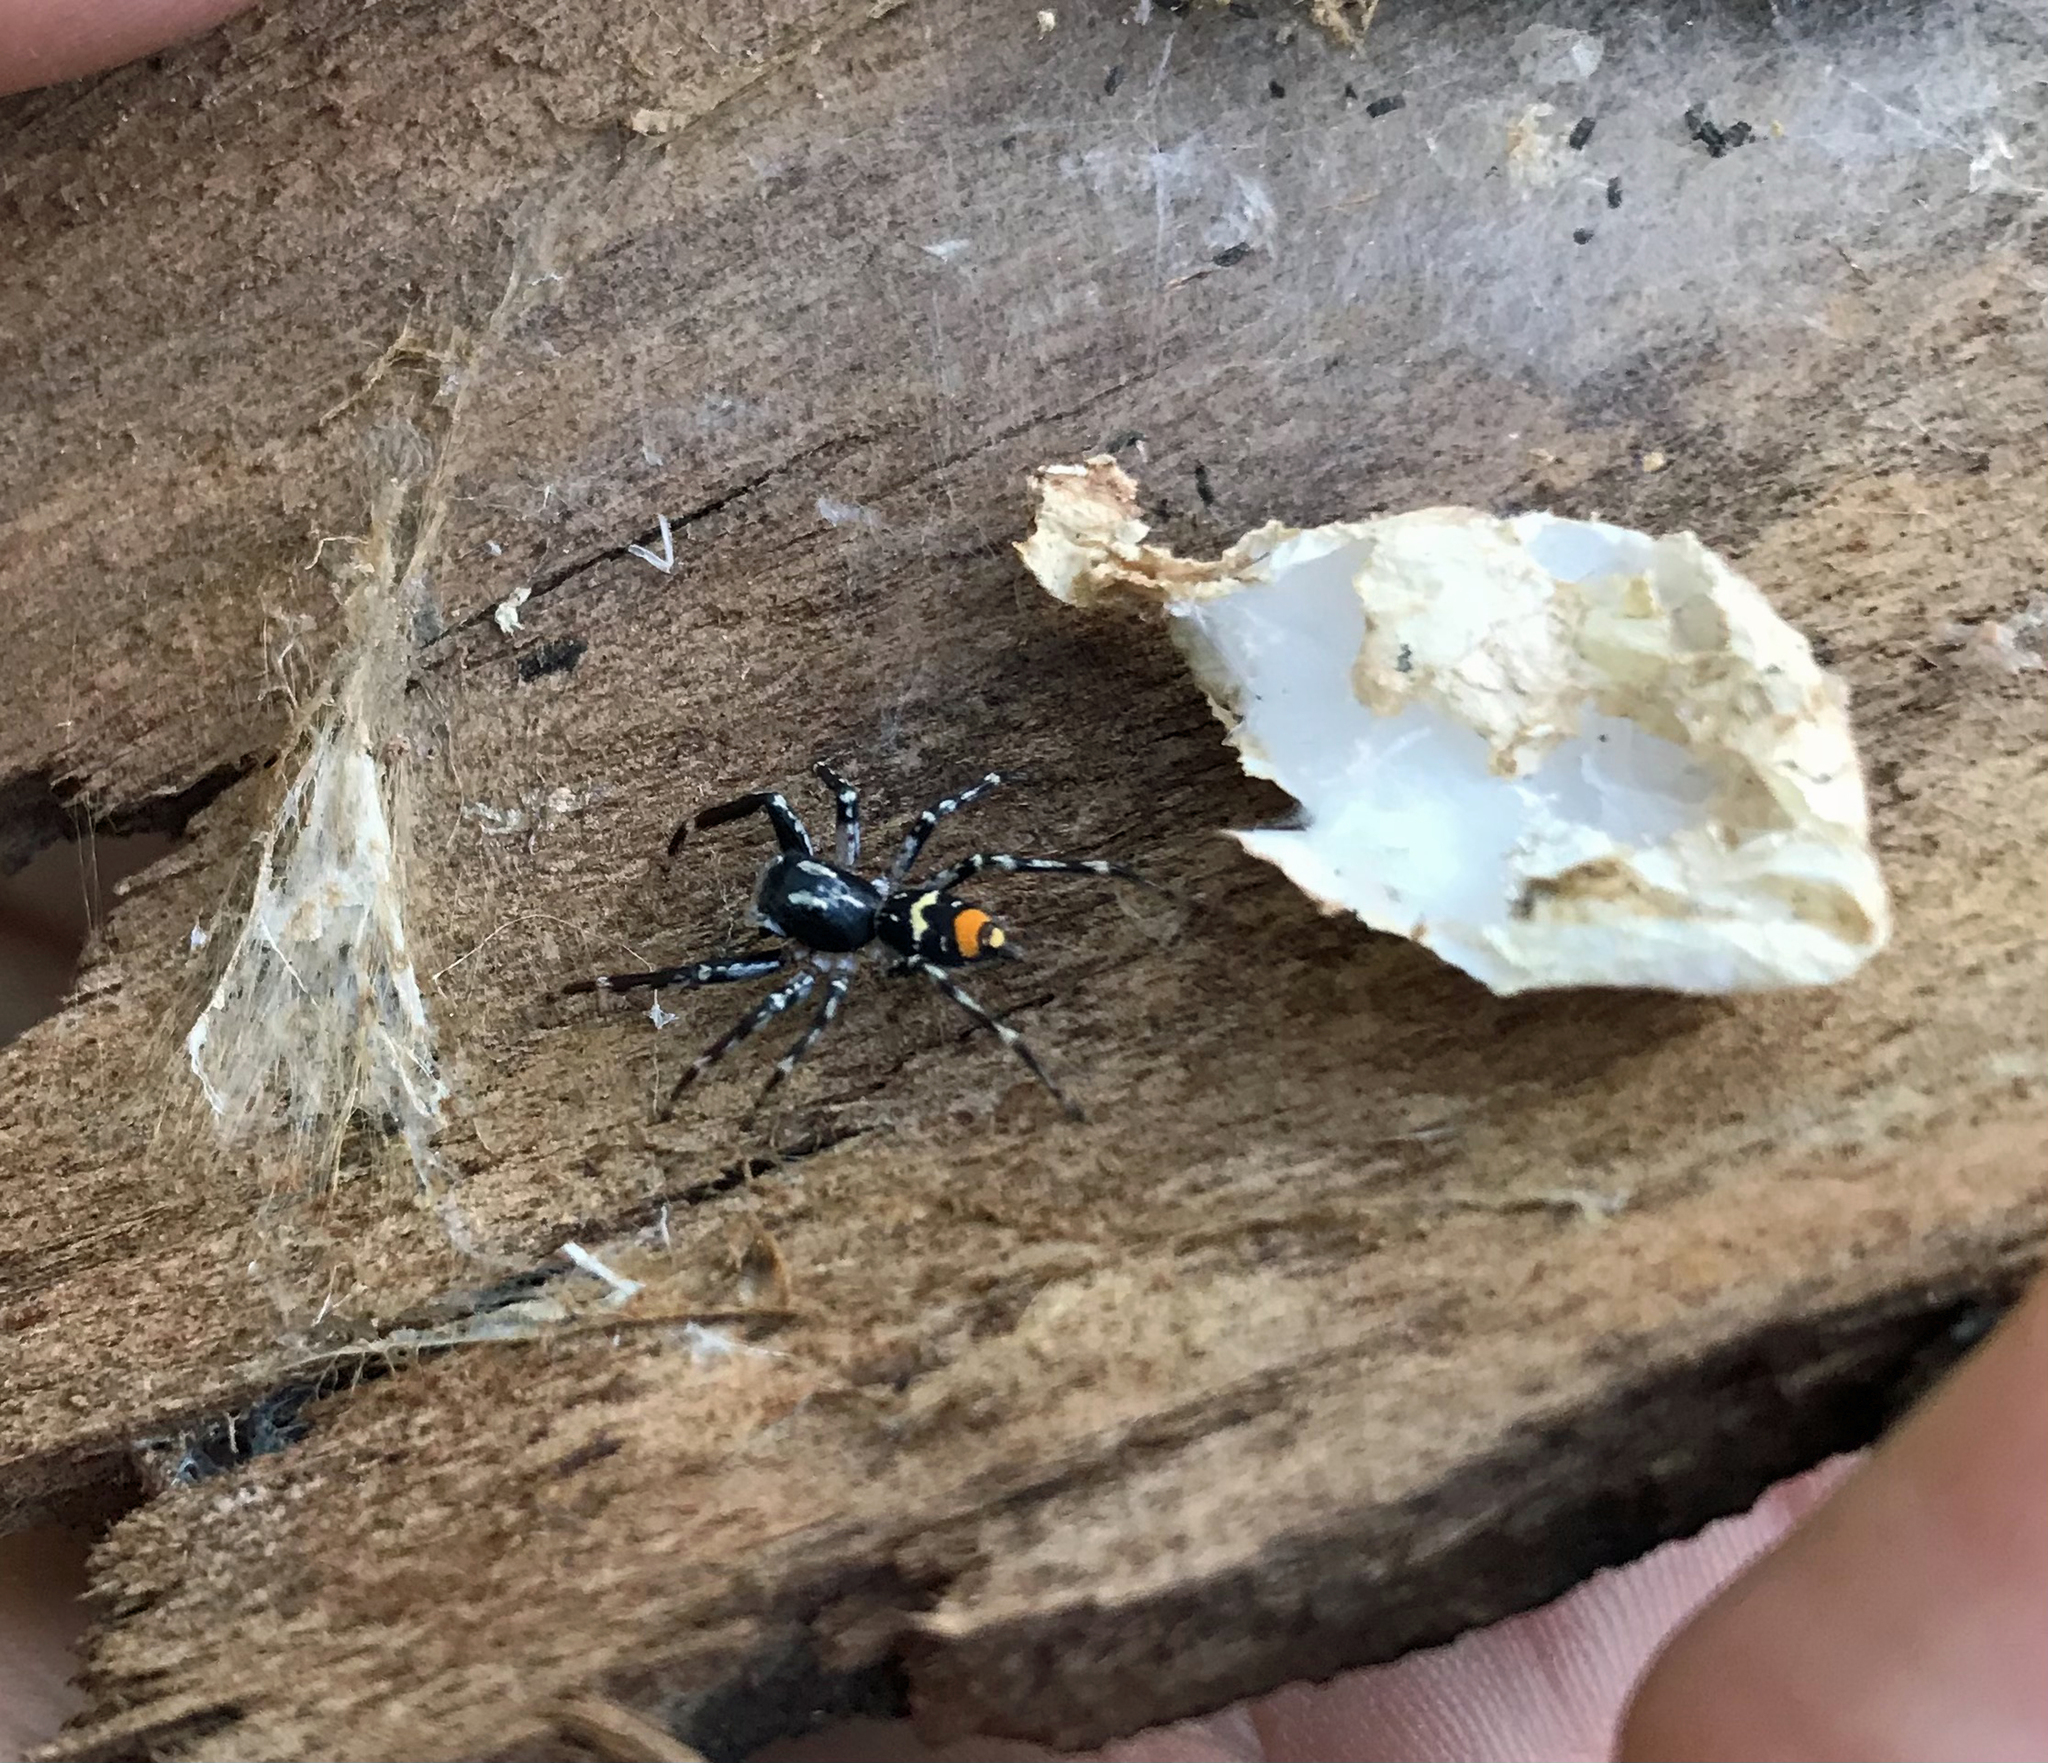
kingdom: Animalia
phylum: Arthropoda
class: Arachnida
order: Araneae
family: Salticidae
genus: Astia
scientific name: Astia
